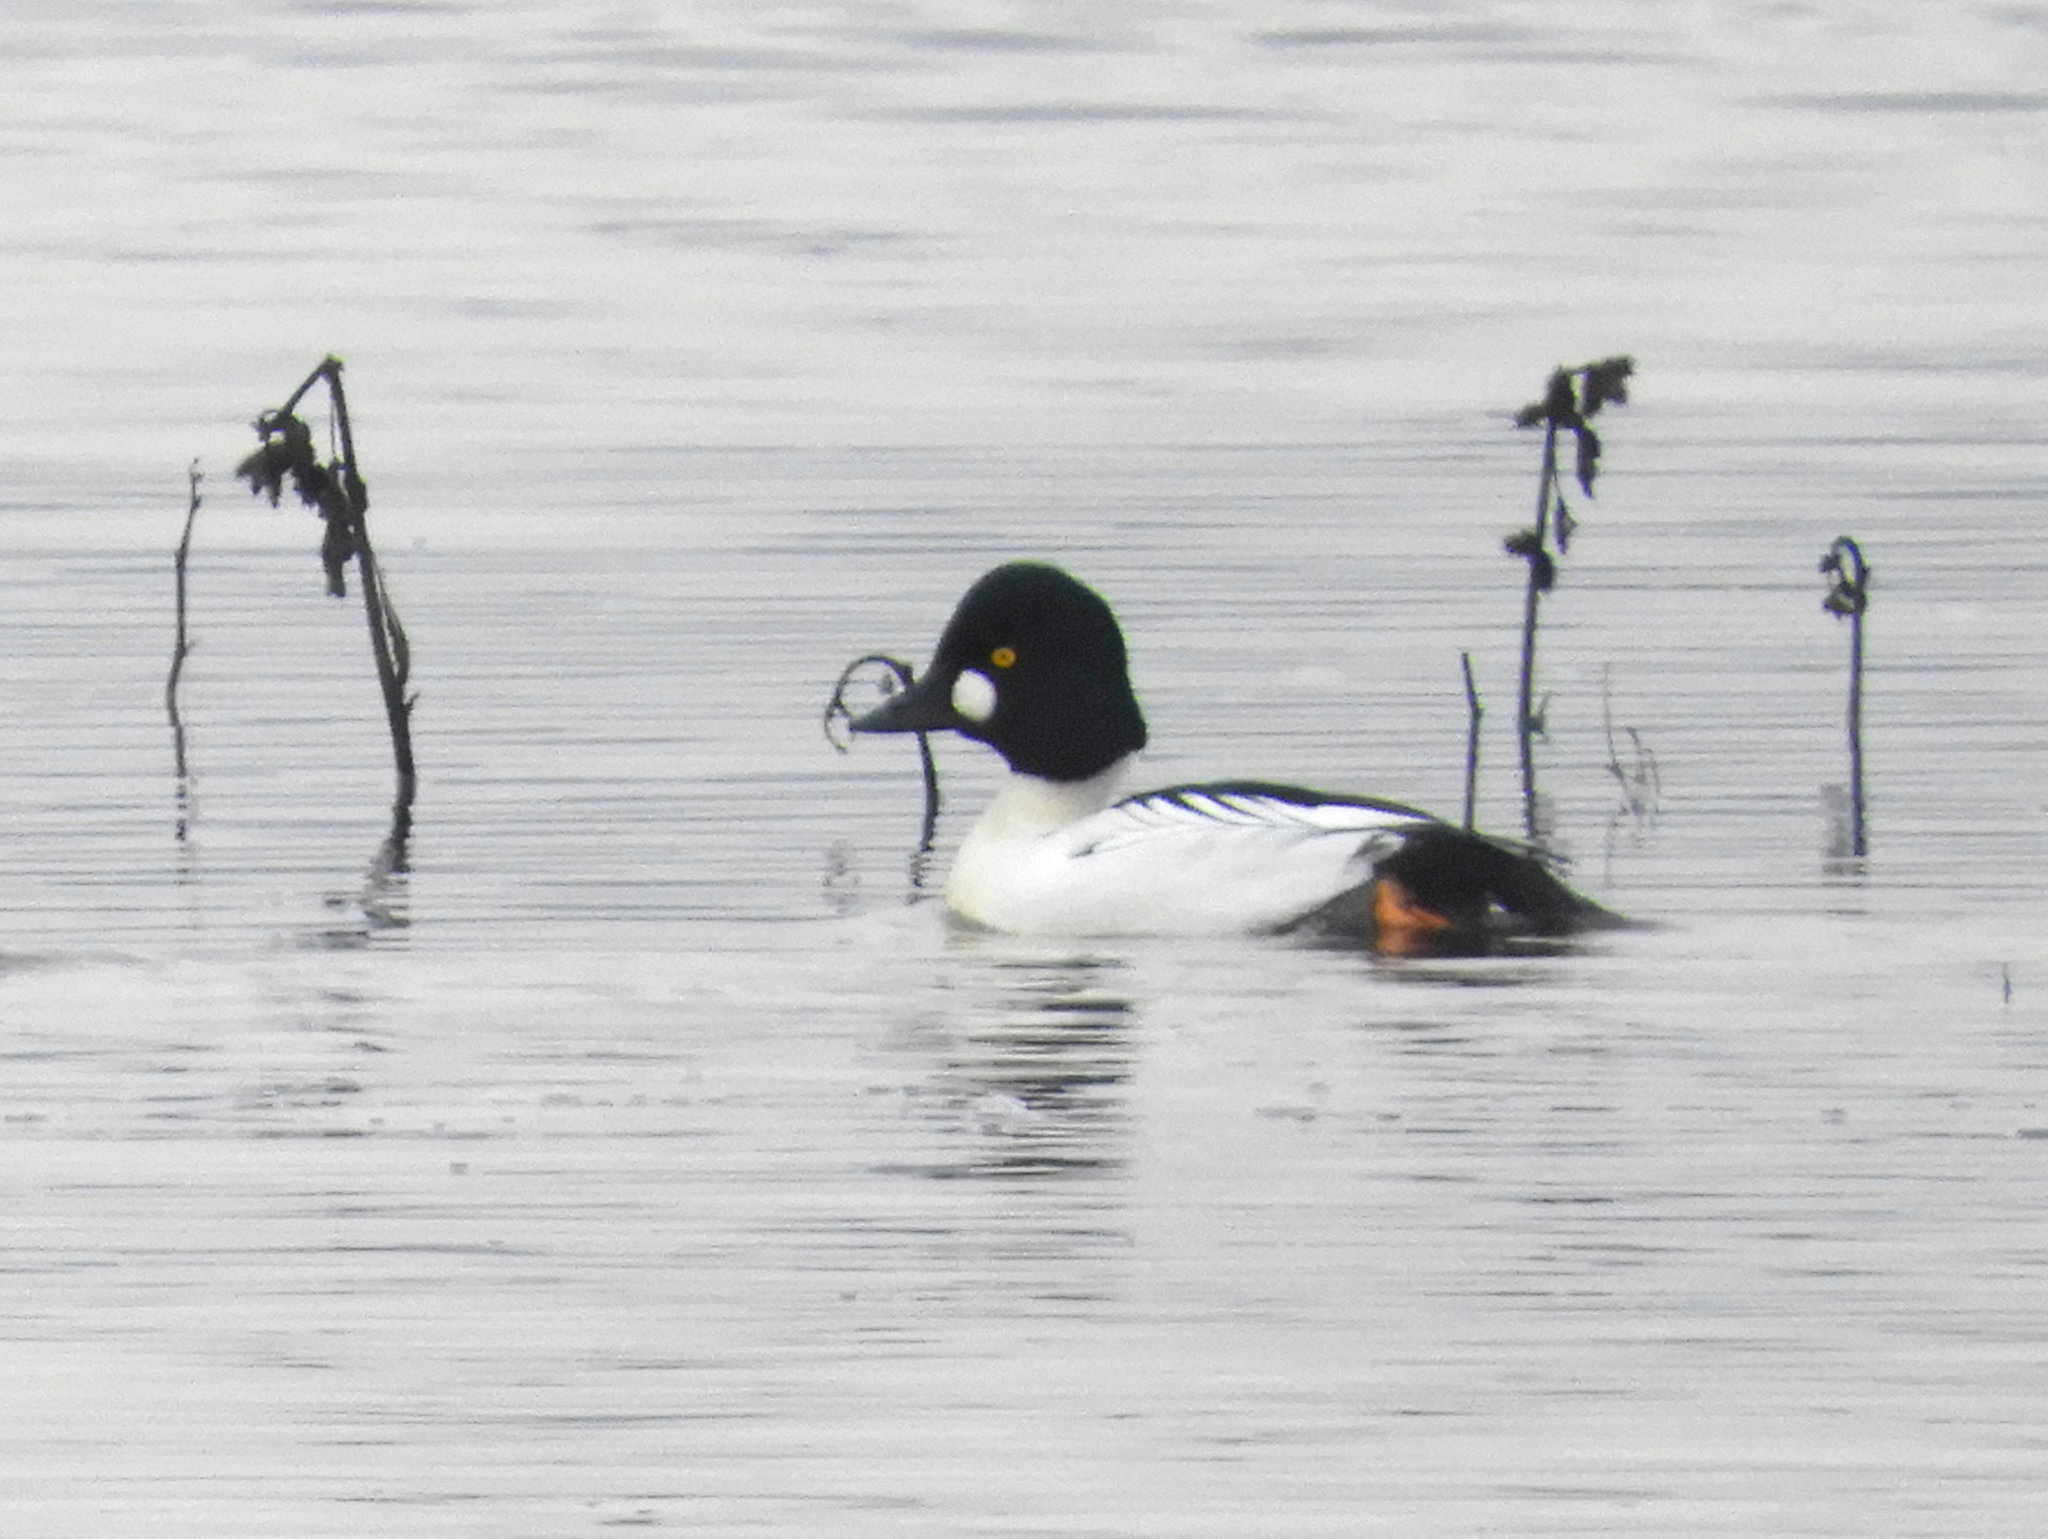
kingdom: Animalia
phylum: Chordata
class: Aves
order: Anseriformes
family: Anatidae
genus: Bucephala
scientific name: Bucephala clangula
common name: Common goldeneye
